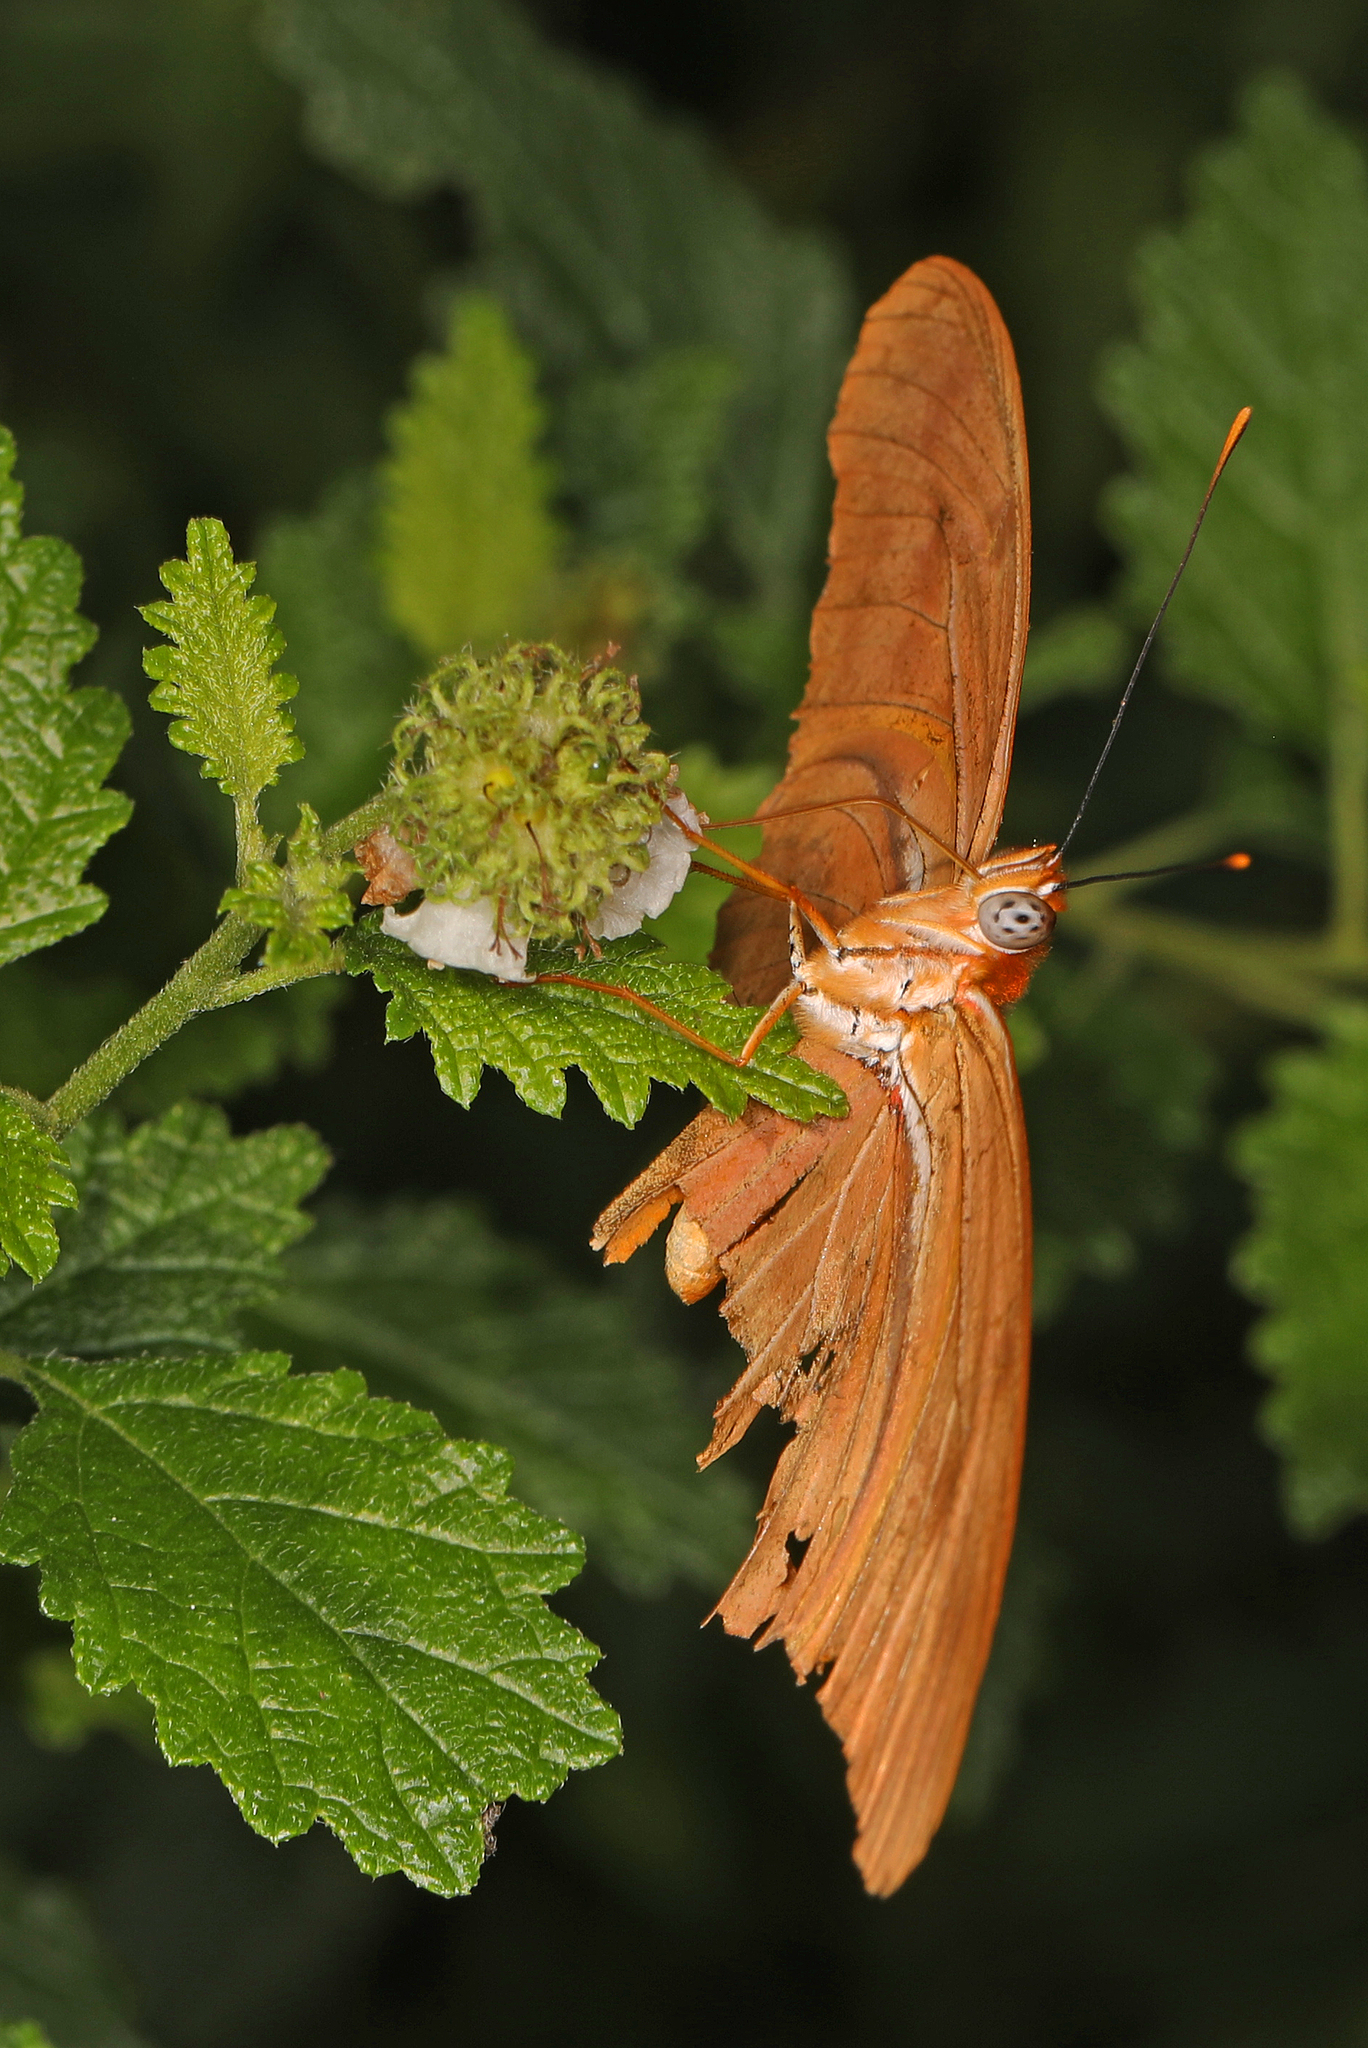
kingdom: Animalia
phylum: Arthropoda
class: Insecta
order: Lepidoptera
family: Nymphalidae
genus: Dryas
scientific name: Dryas iulia
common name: Flambeau
